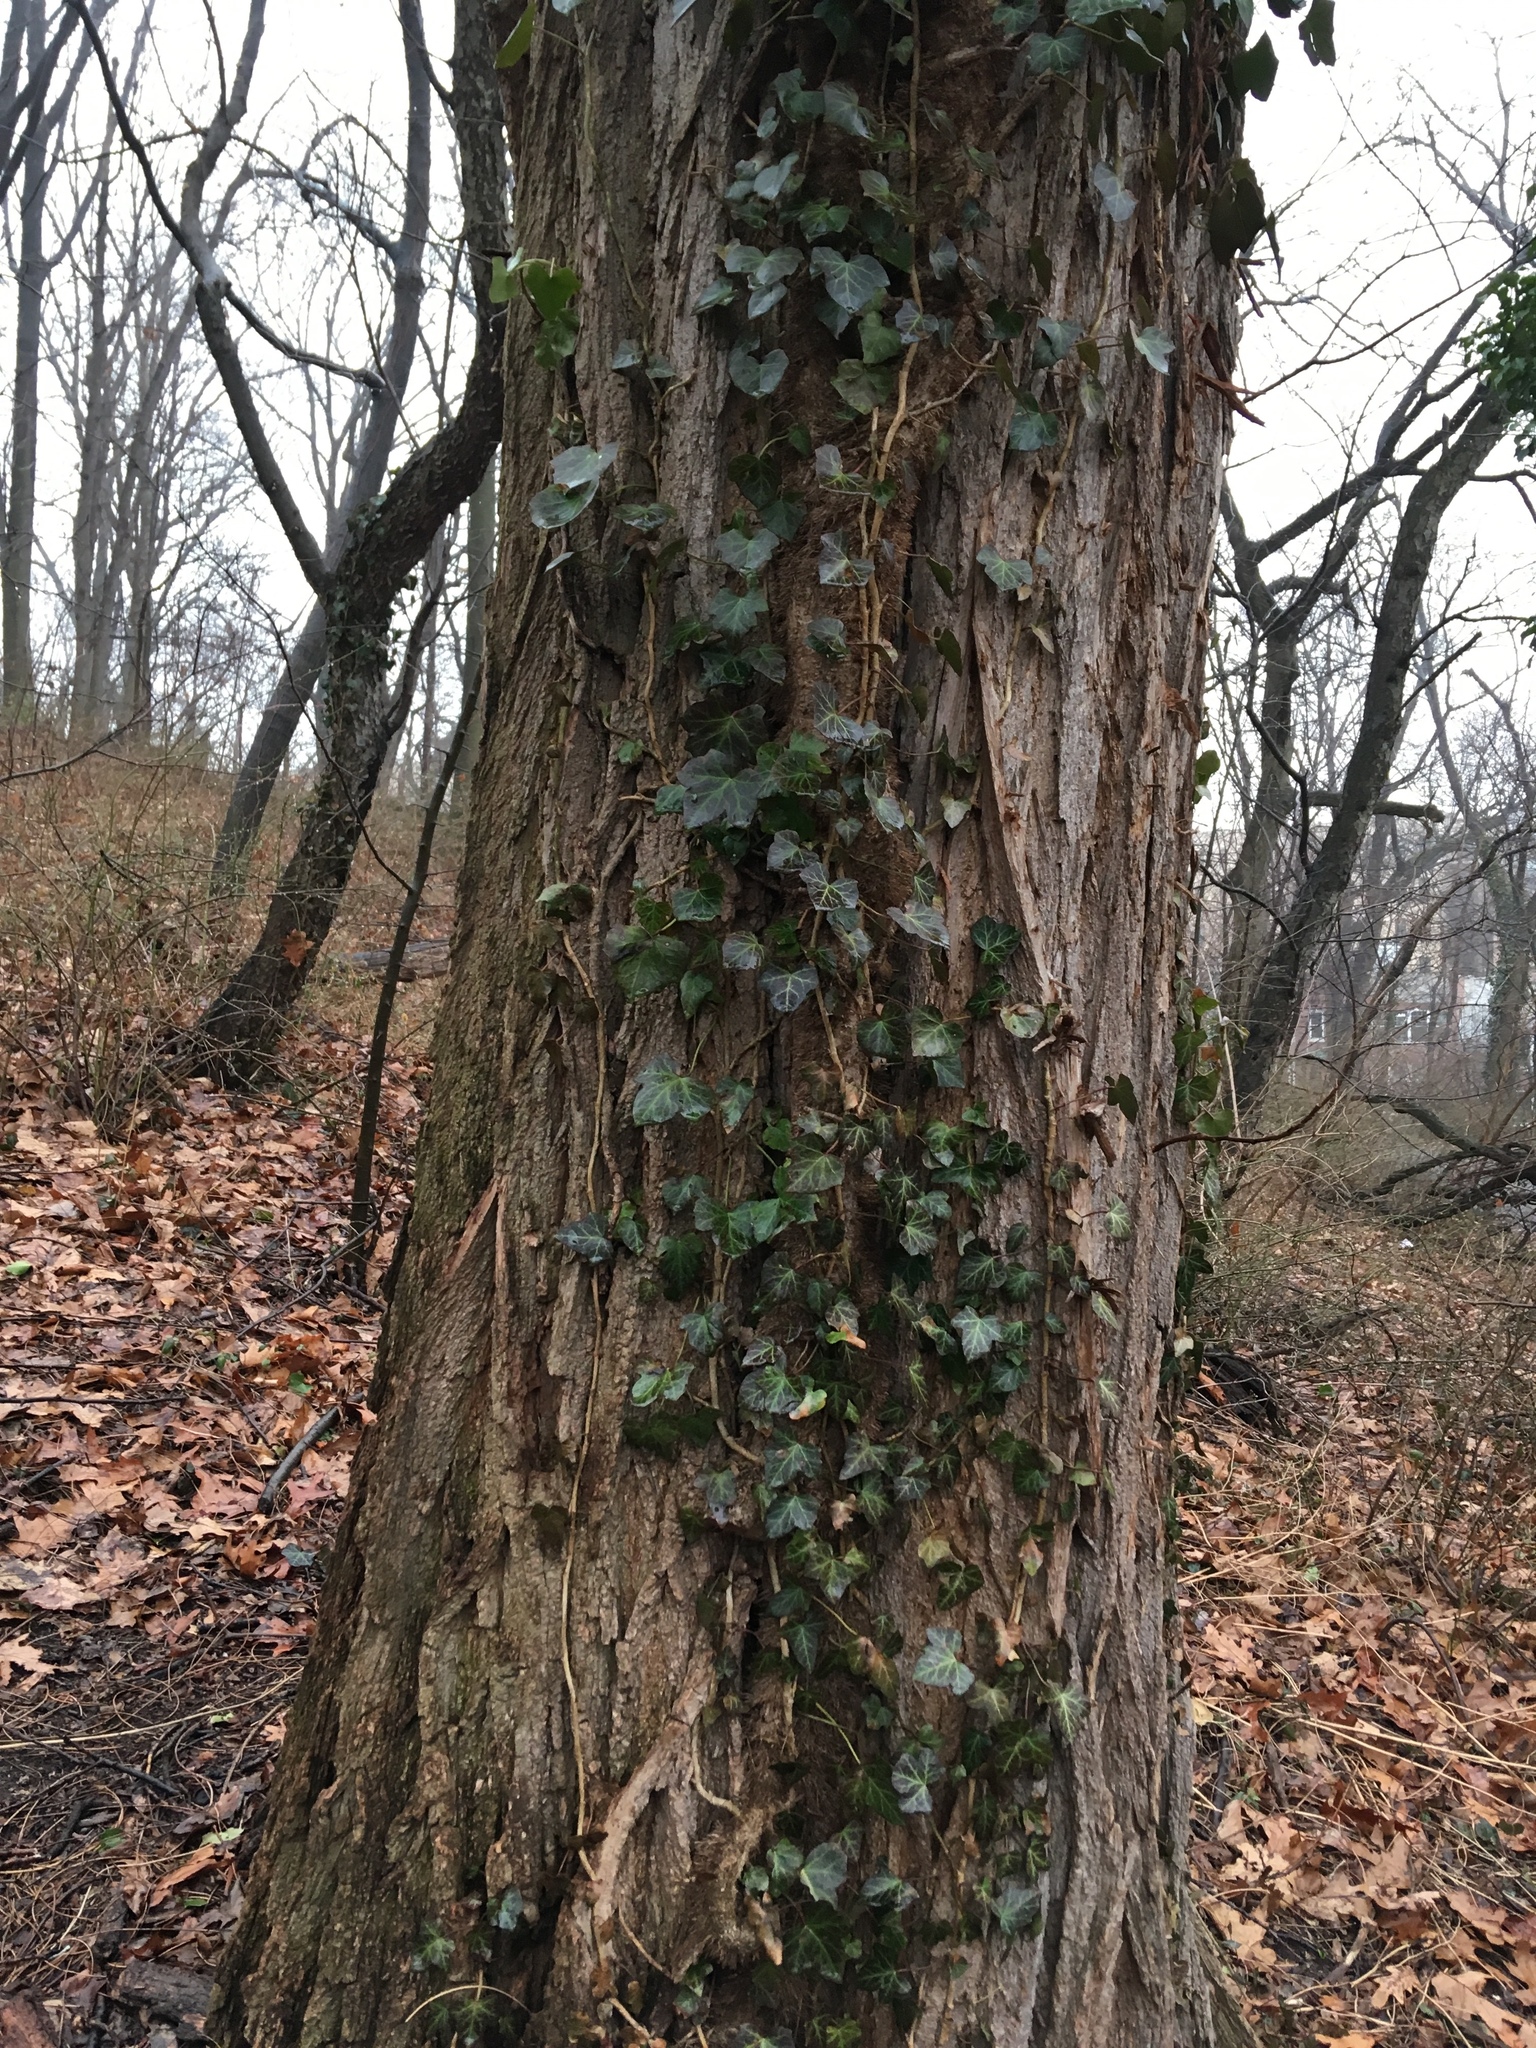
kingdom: Plantae
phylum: Tracheophyta
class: Magnoliopsida
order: Apiales
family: Araliaceae
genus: Hedera
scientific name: Hedera helix
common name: Ivy
